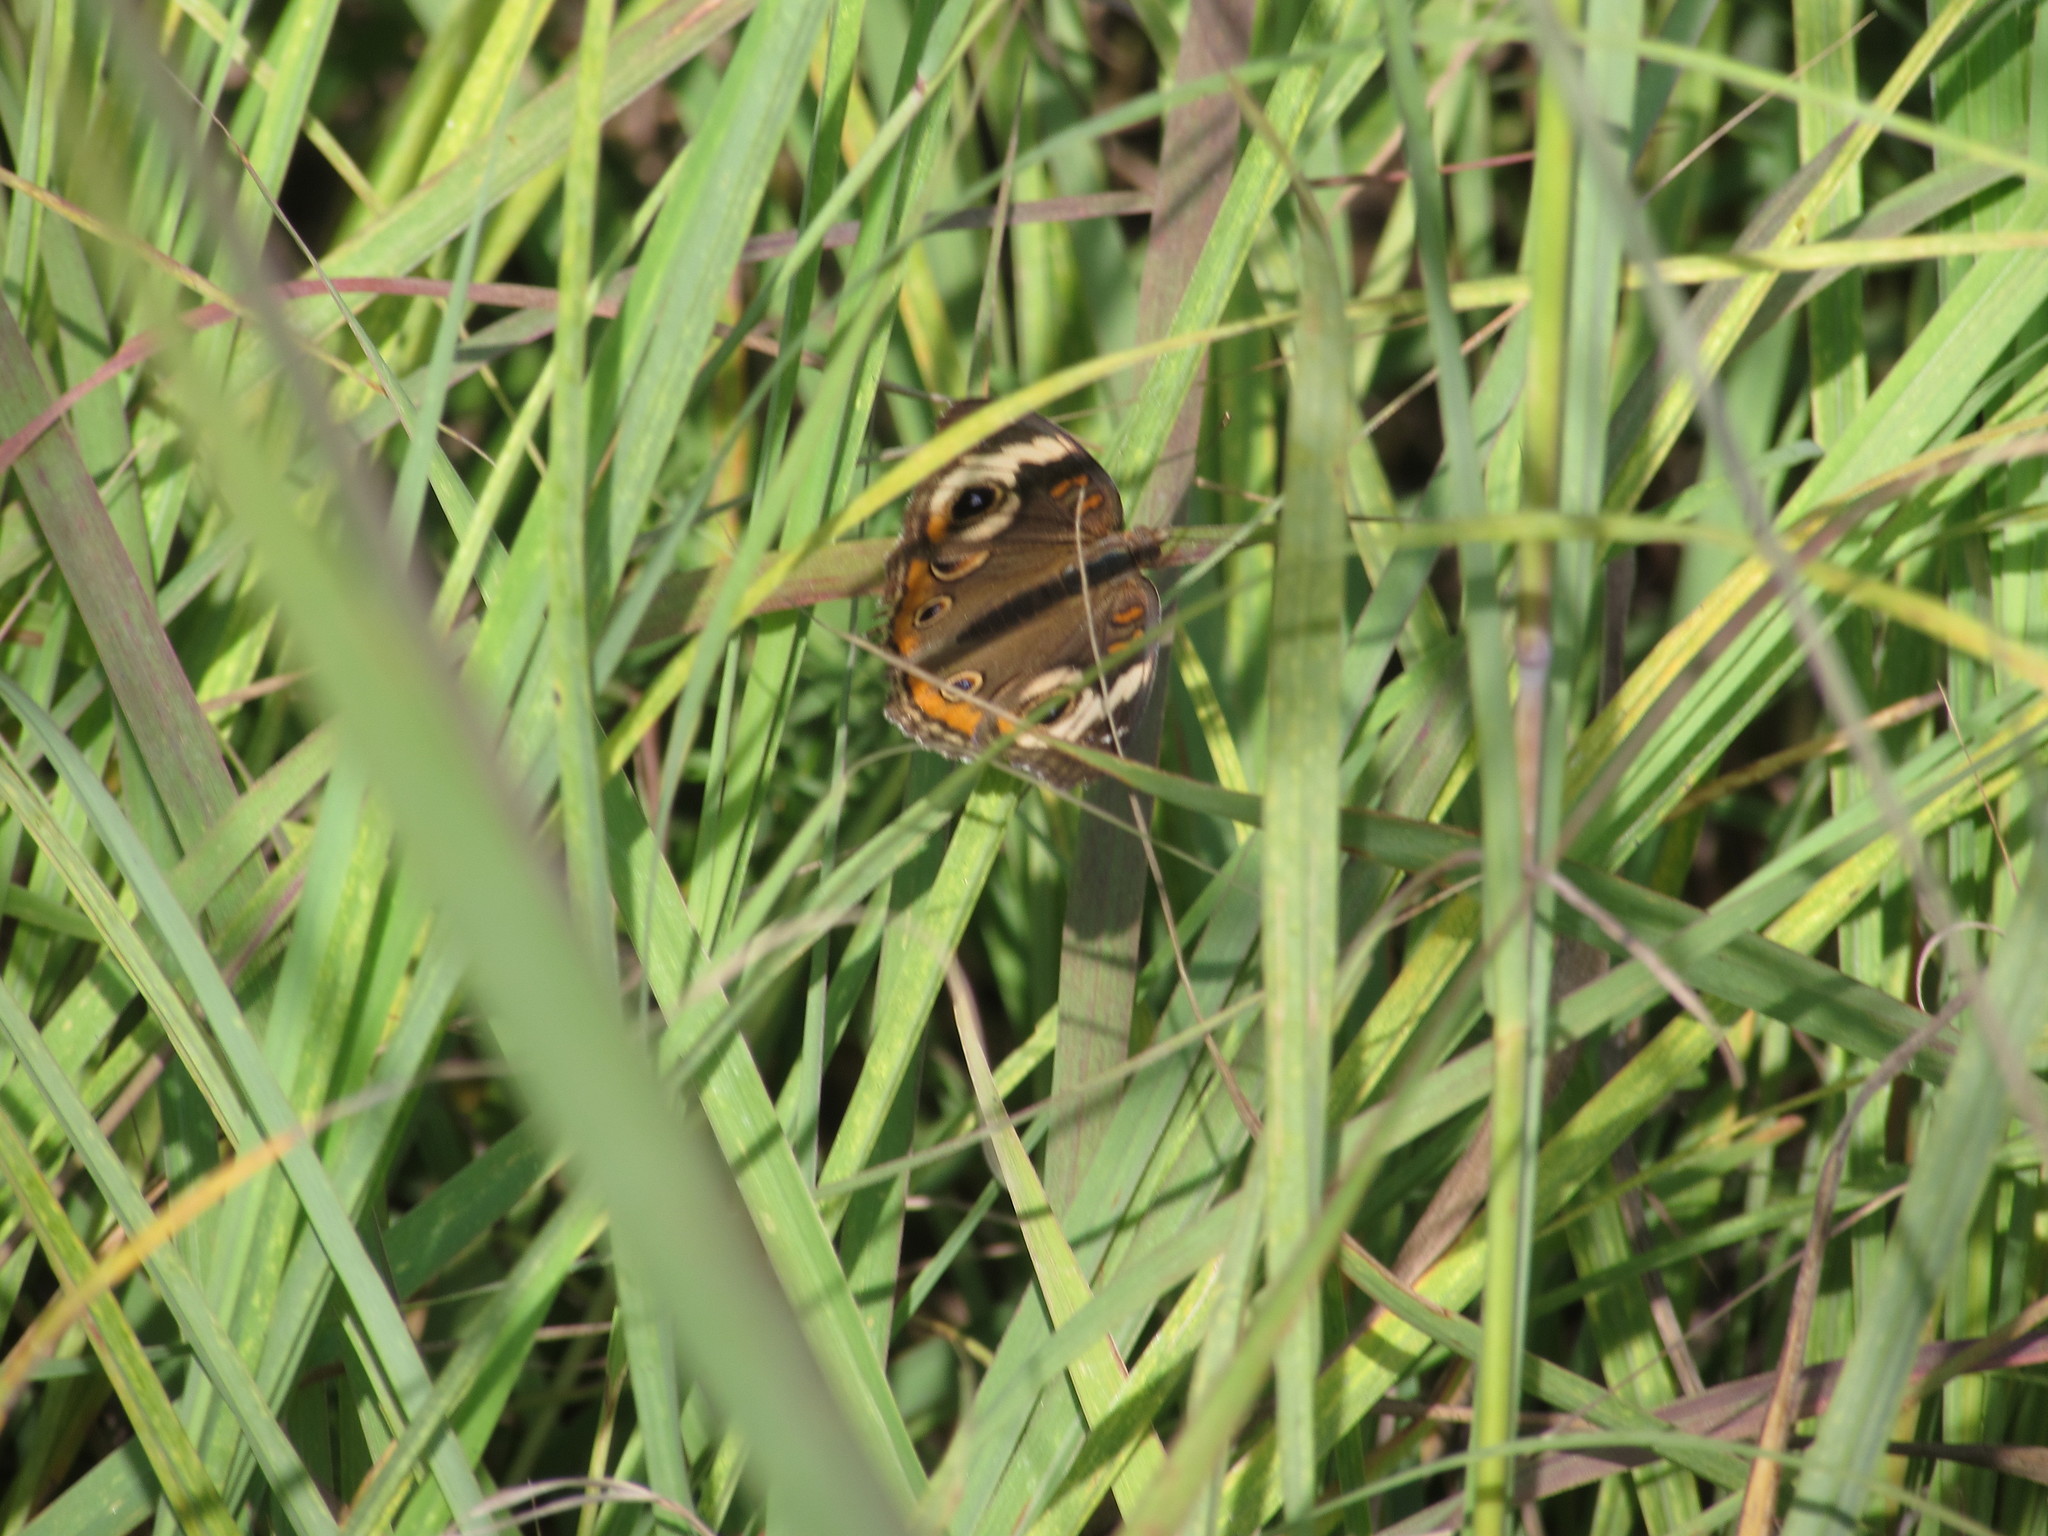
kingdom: Animalia
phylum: Arthropoda
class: Insecta
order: Lepidoptera
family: Nymphalidae
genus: Junonia
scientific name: Junonia coenia
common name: Common buckeye
